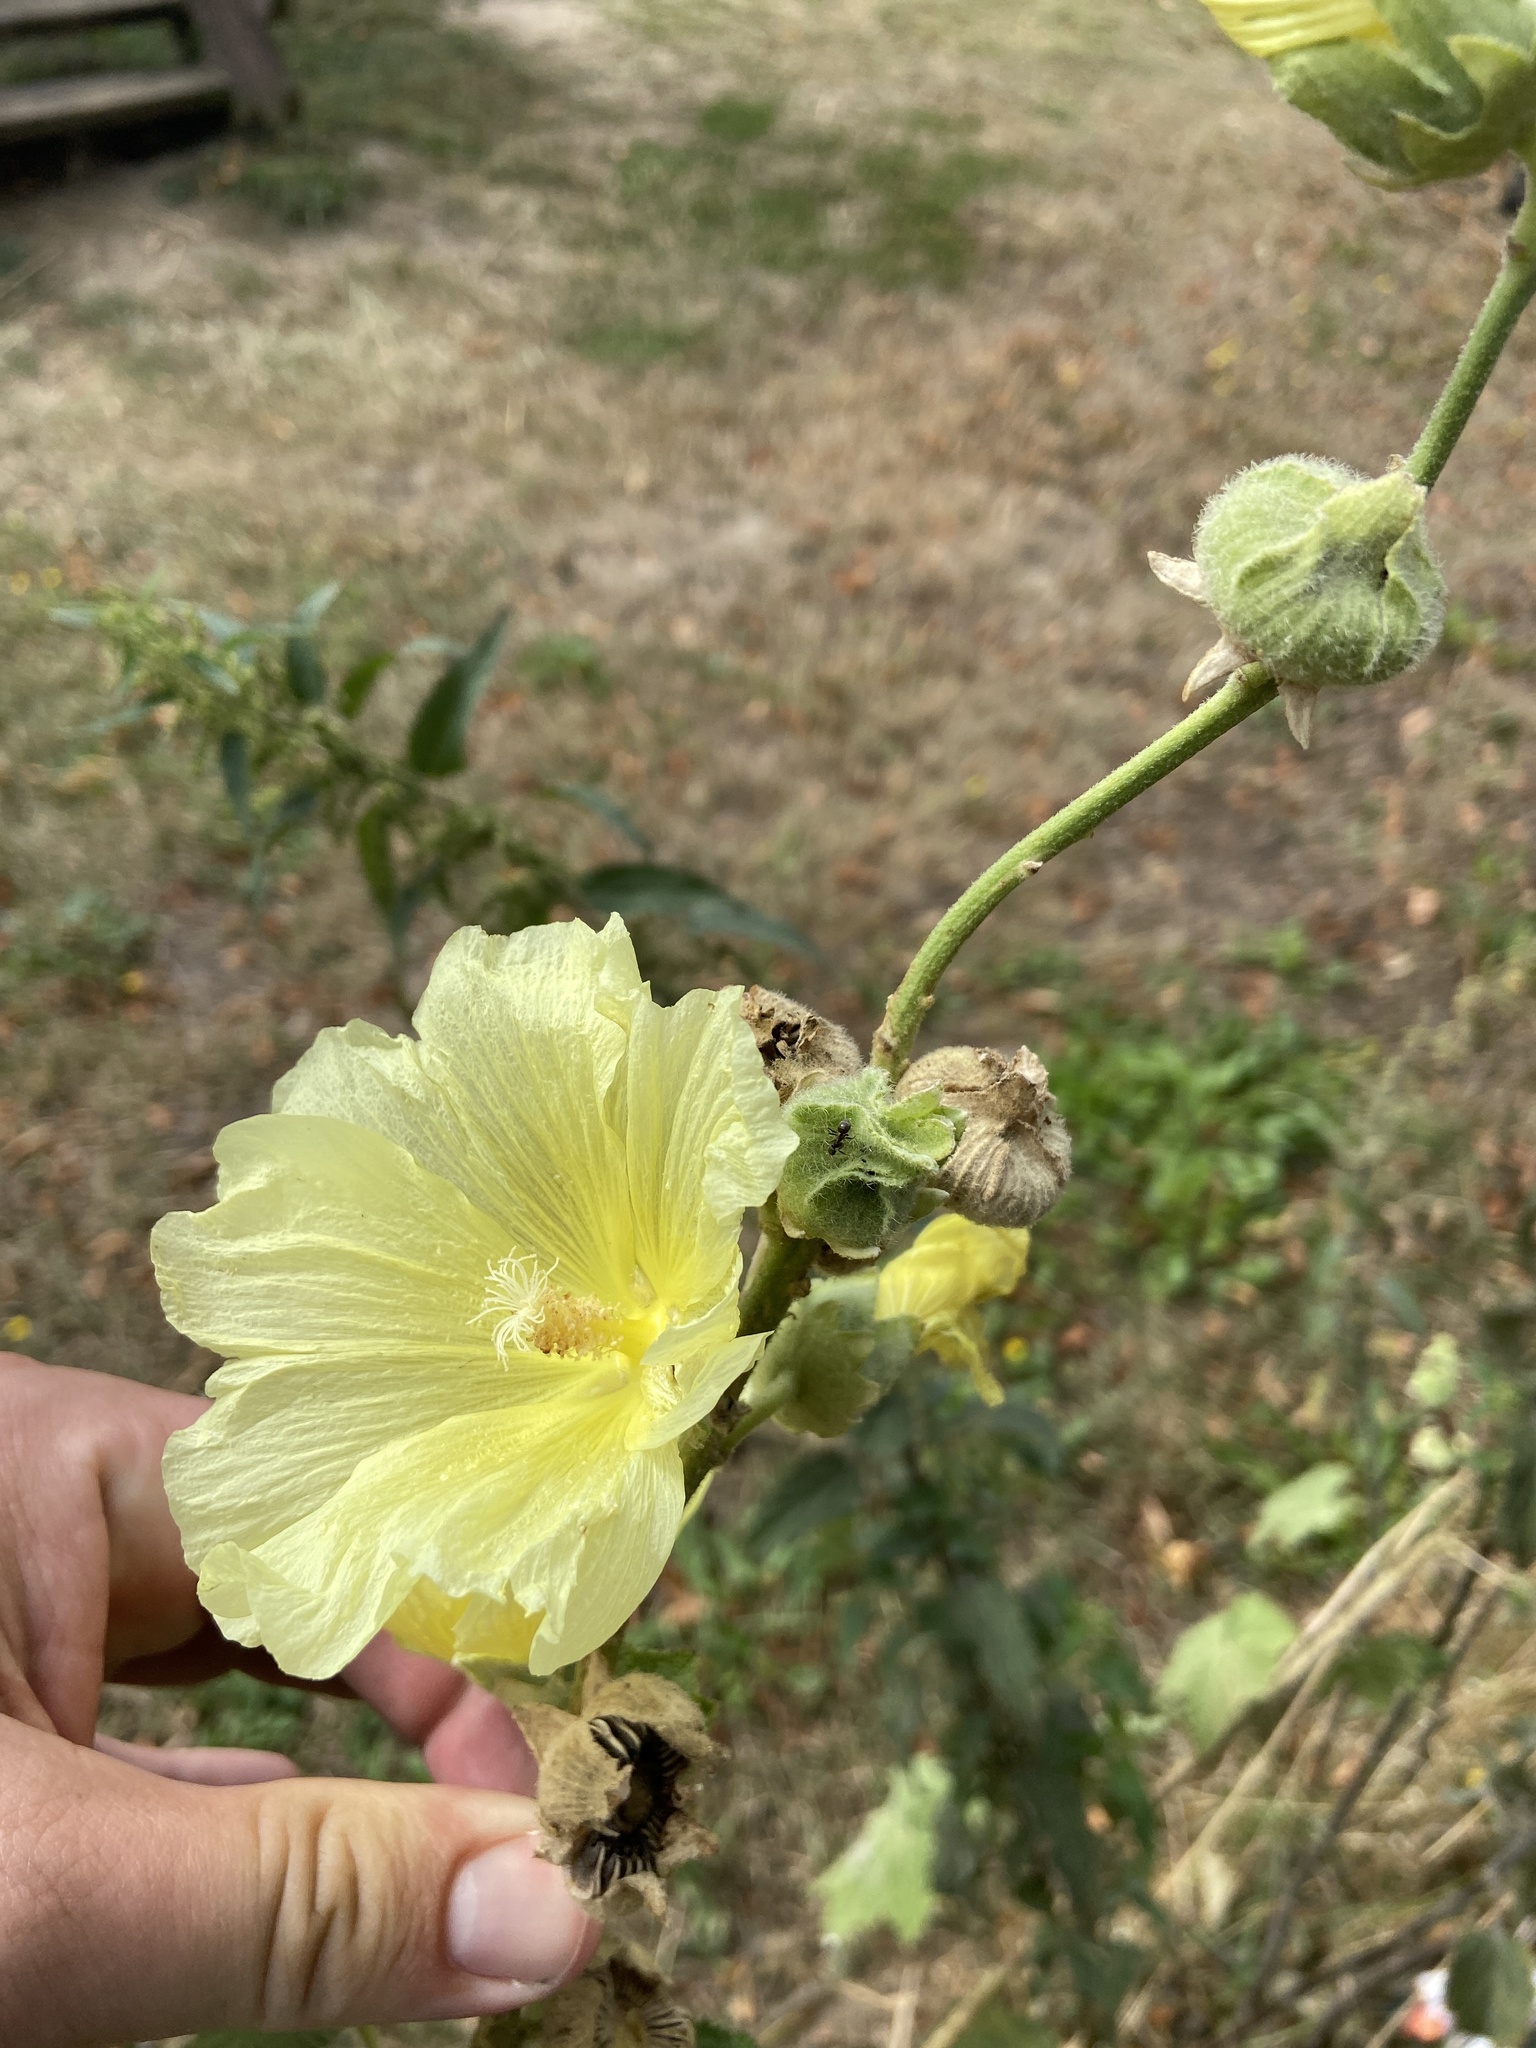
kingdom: Plantae
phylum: Tracheophyta
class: Magnoliopsida
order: Malvales
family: Malvaceae
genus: Alcea
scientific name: Alcea rosea
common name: Hollyhock
